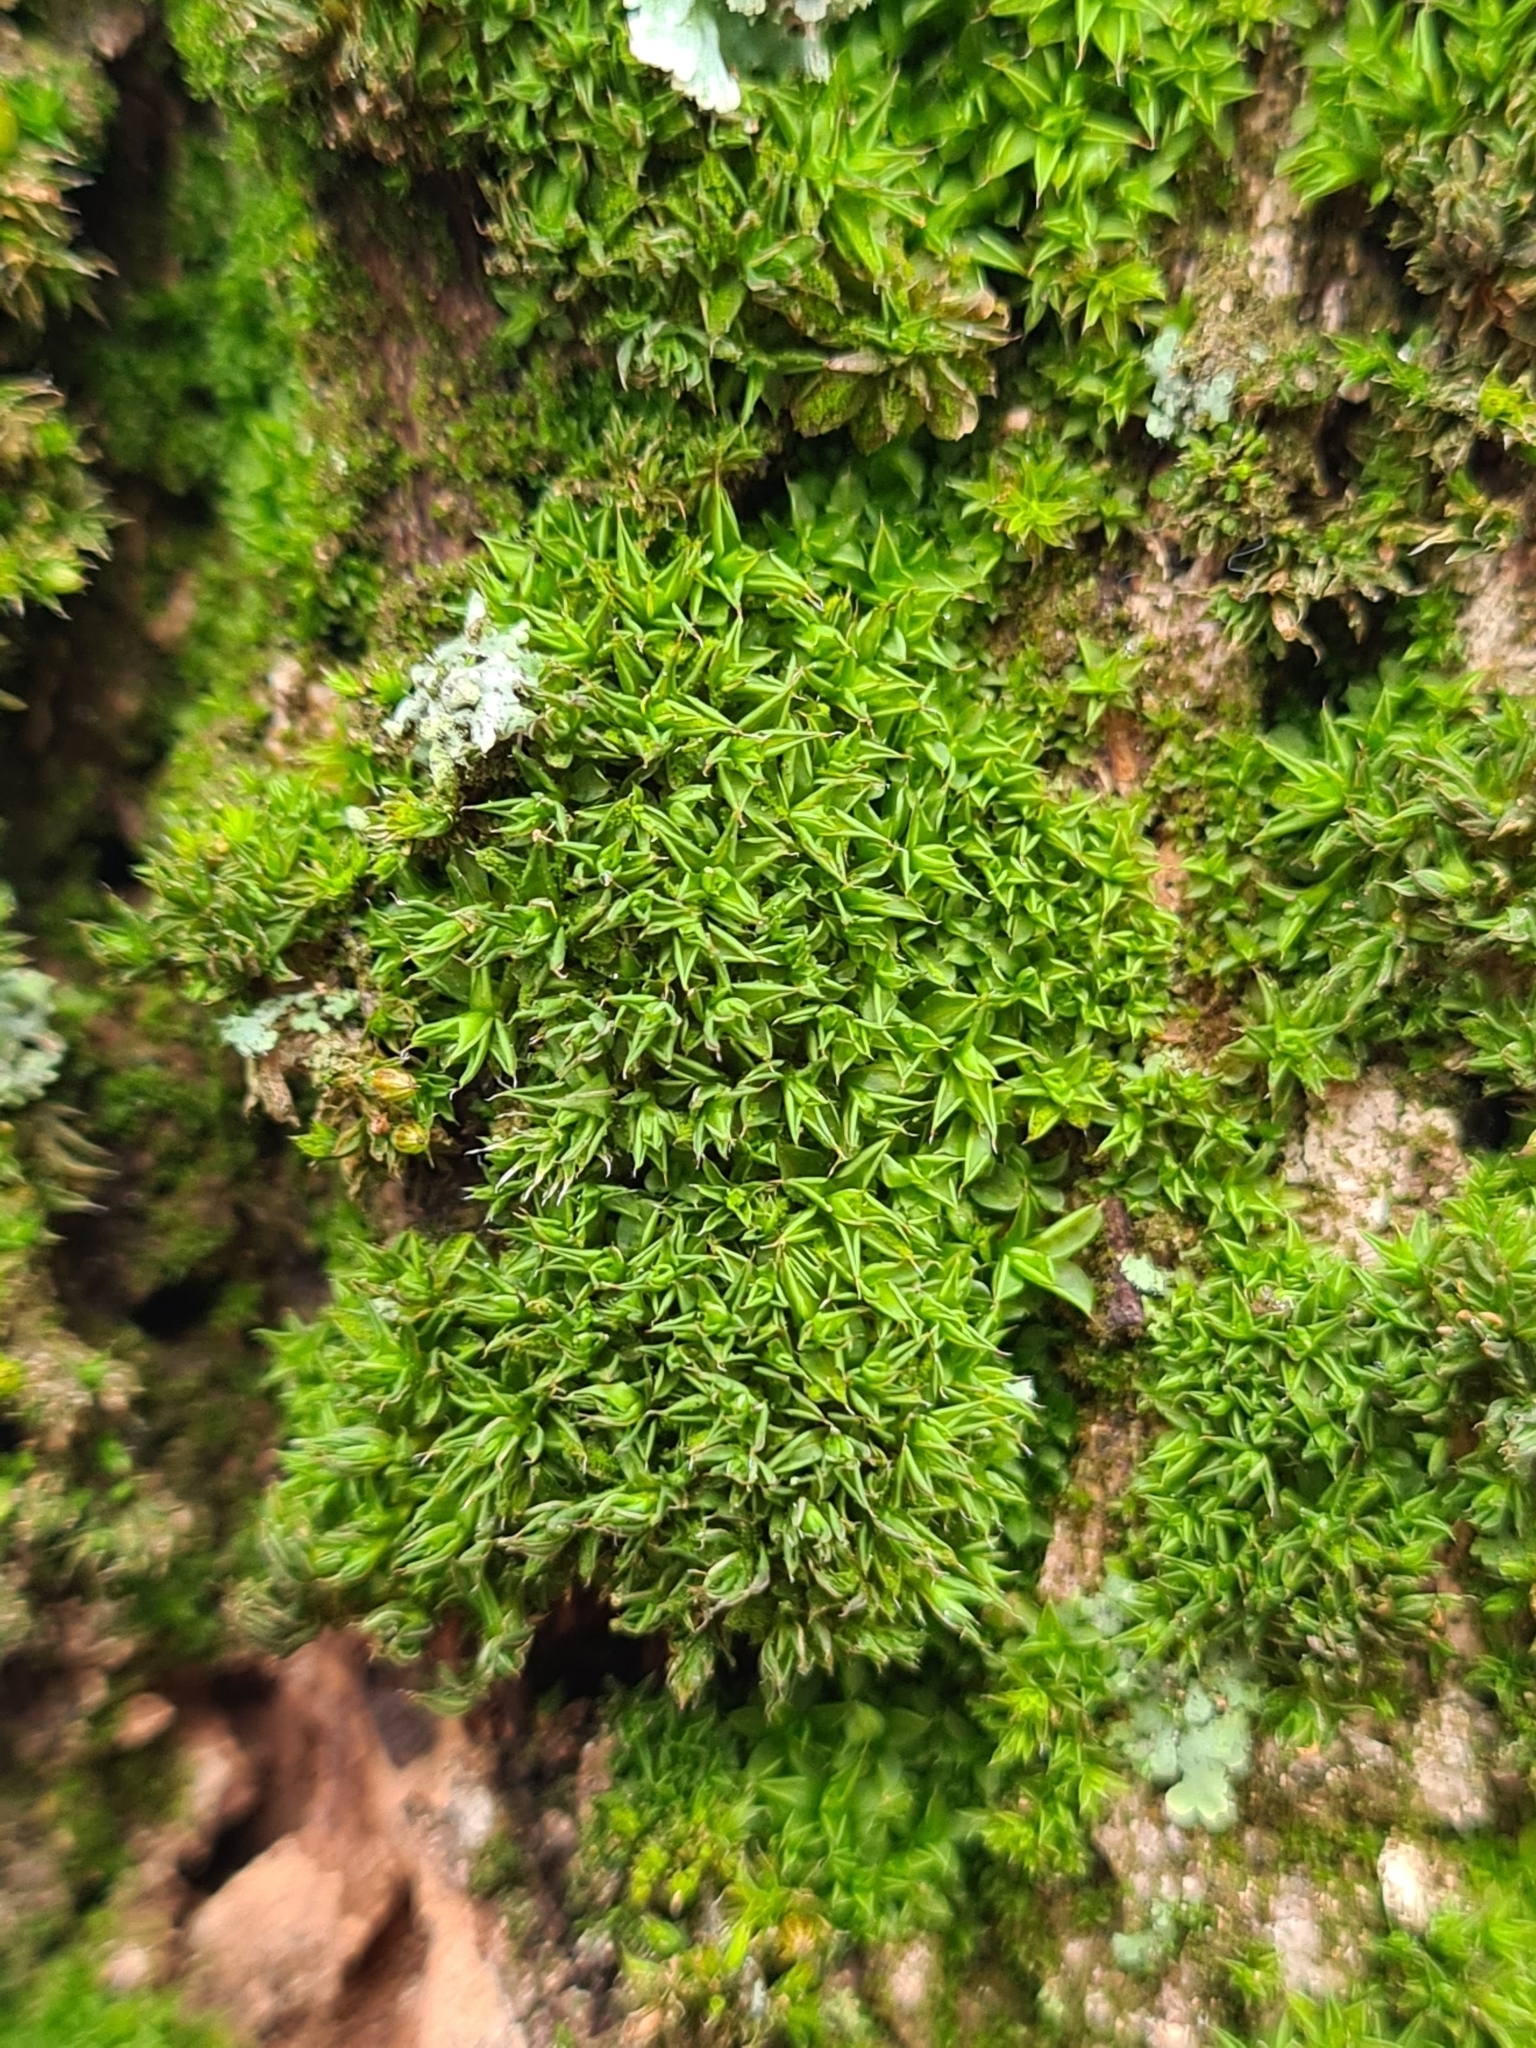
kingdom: Plantae
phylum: Bryophyta
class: Bryopsida
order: Pottiales
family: Pottiaceae
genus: Syntrichia
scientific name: Syntrichia papillosa
